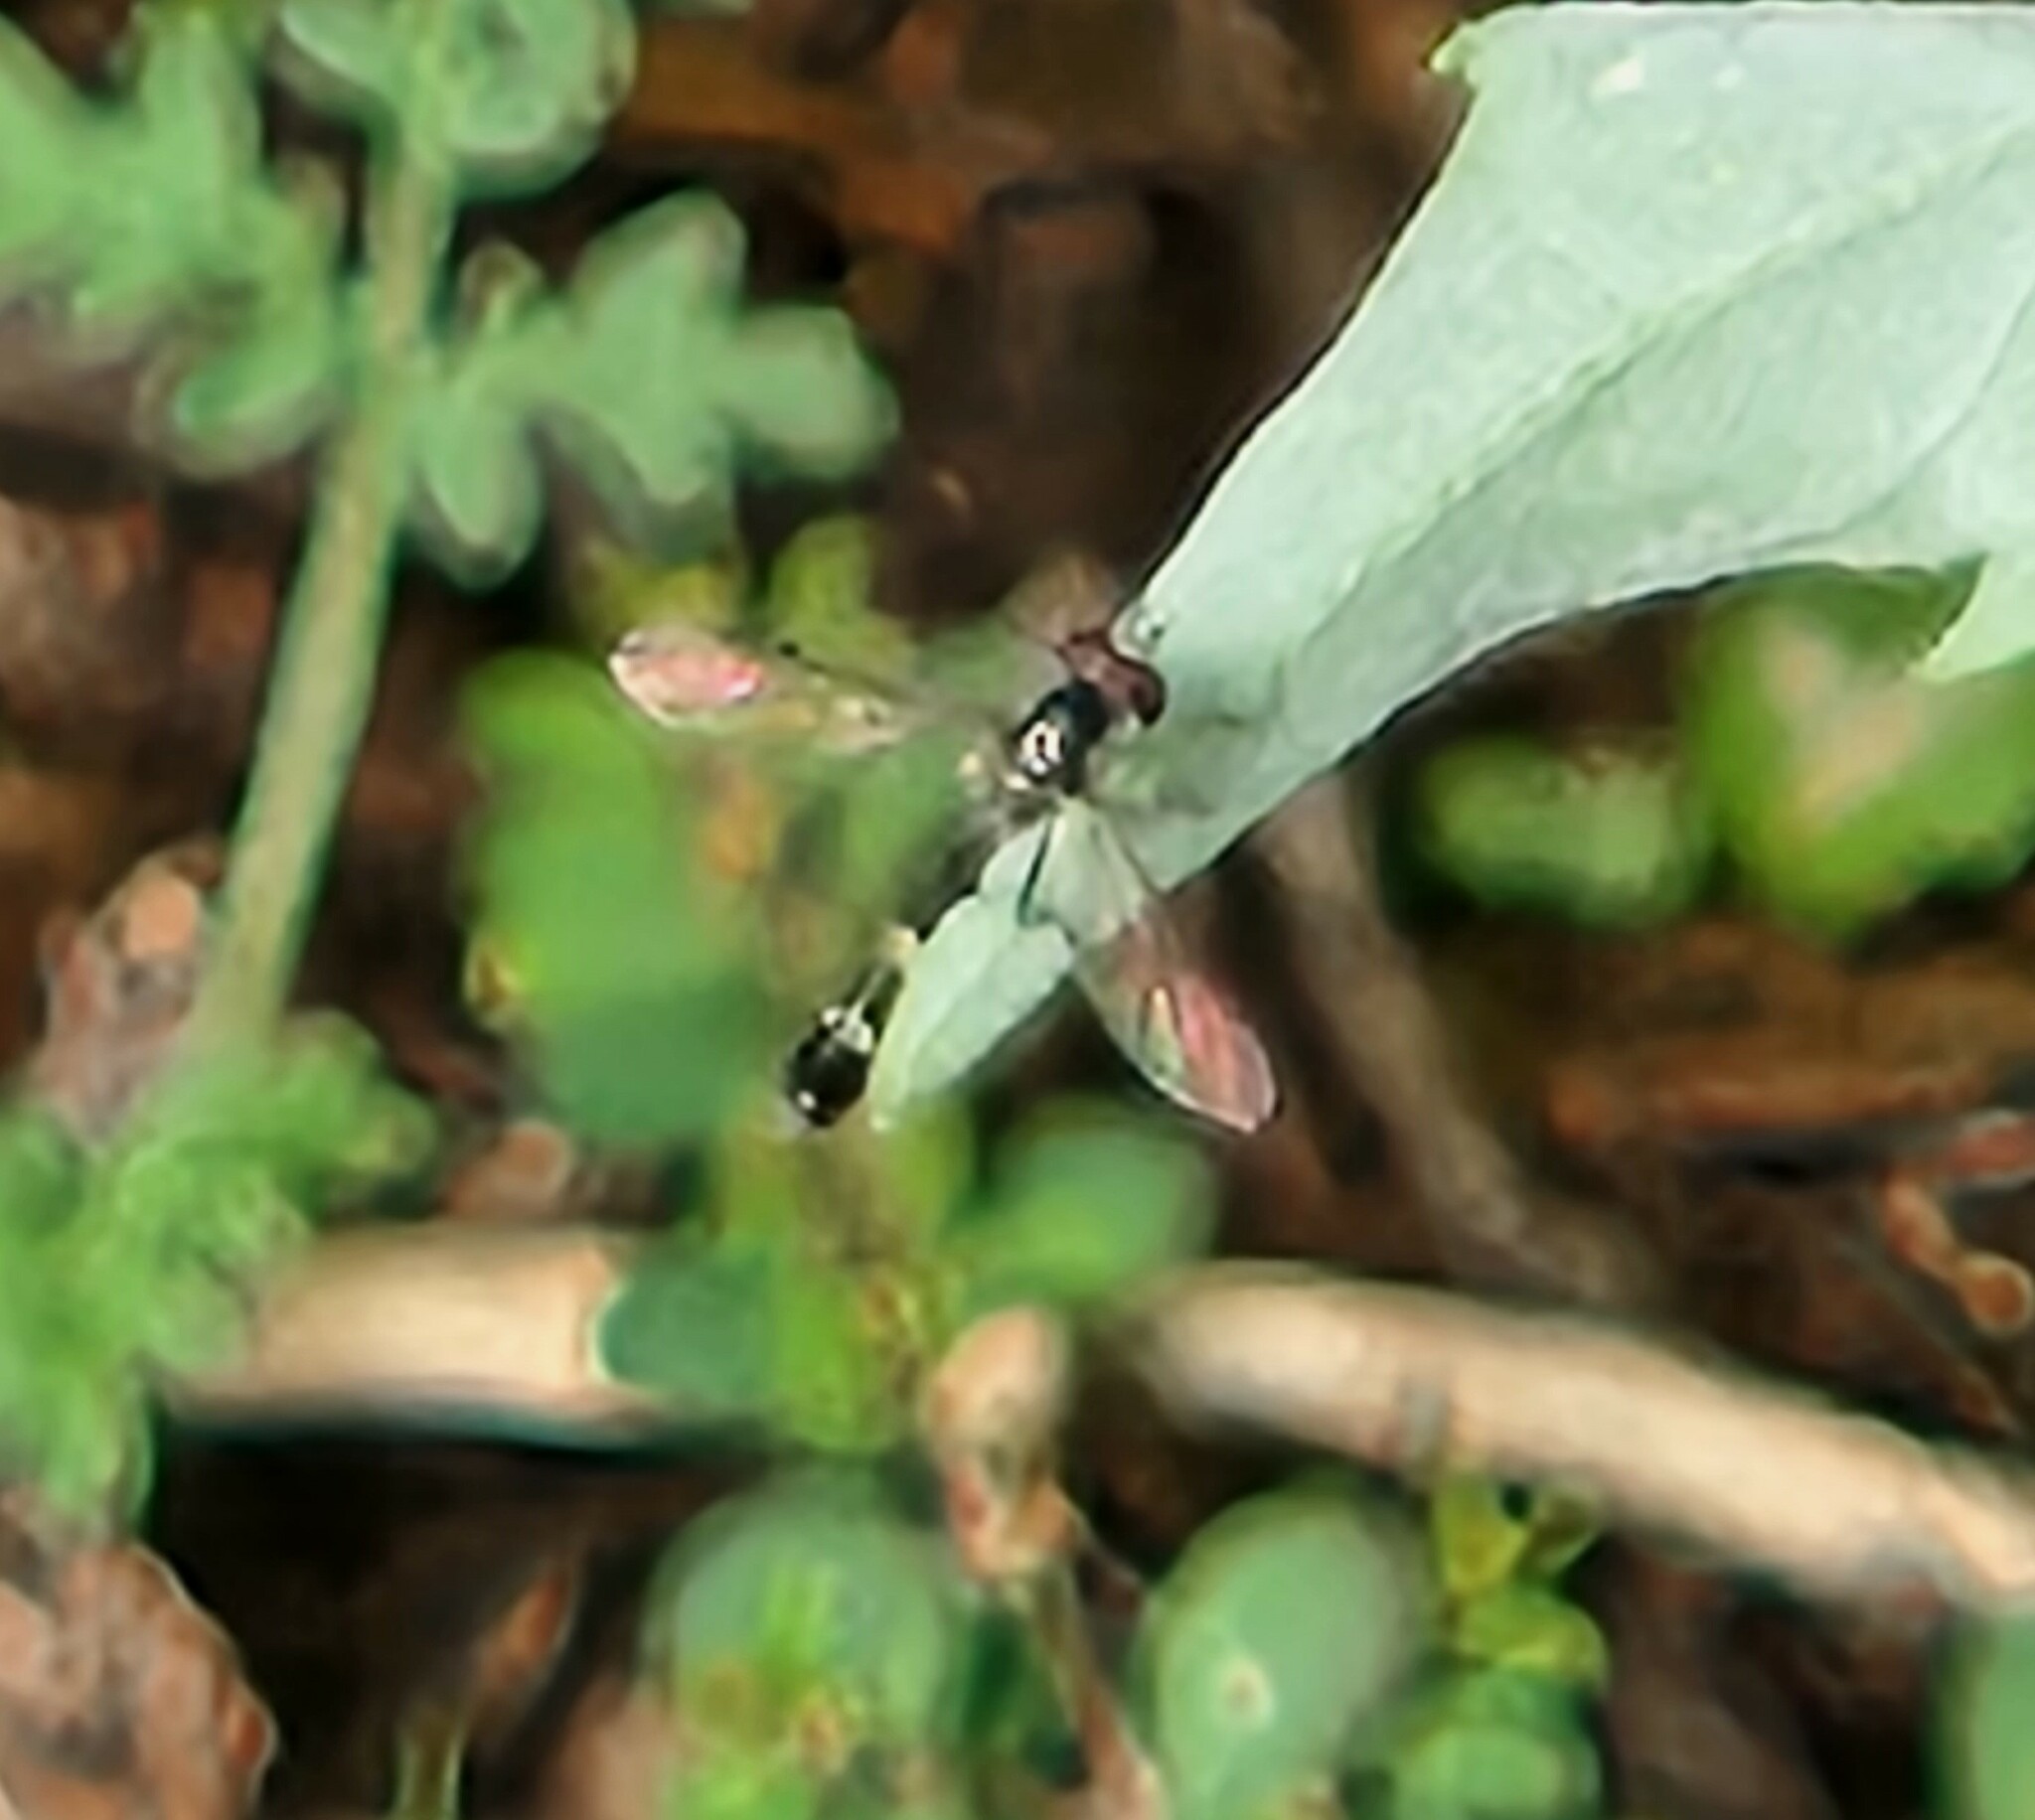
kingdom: Animalia
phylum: Arthropoda
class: Insecta
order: Diptera
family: Syrphidae
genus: Dioprosopa
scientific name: Dioprosopa clavatus
